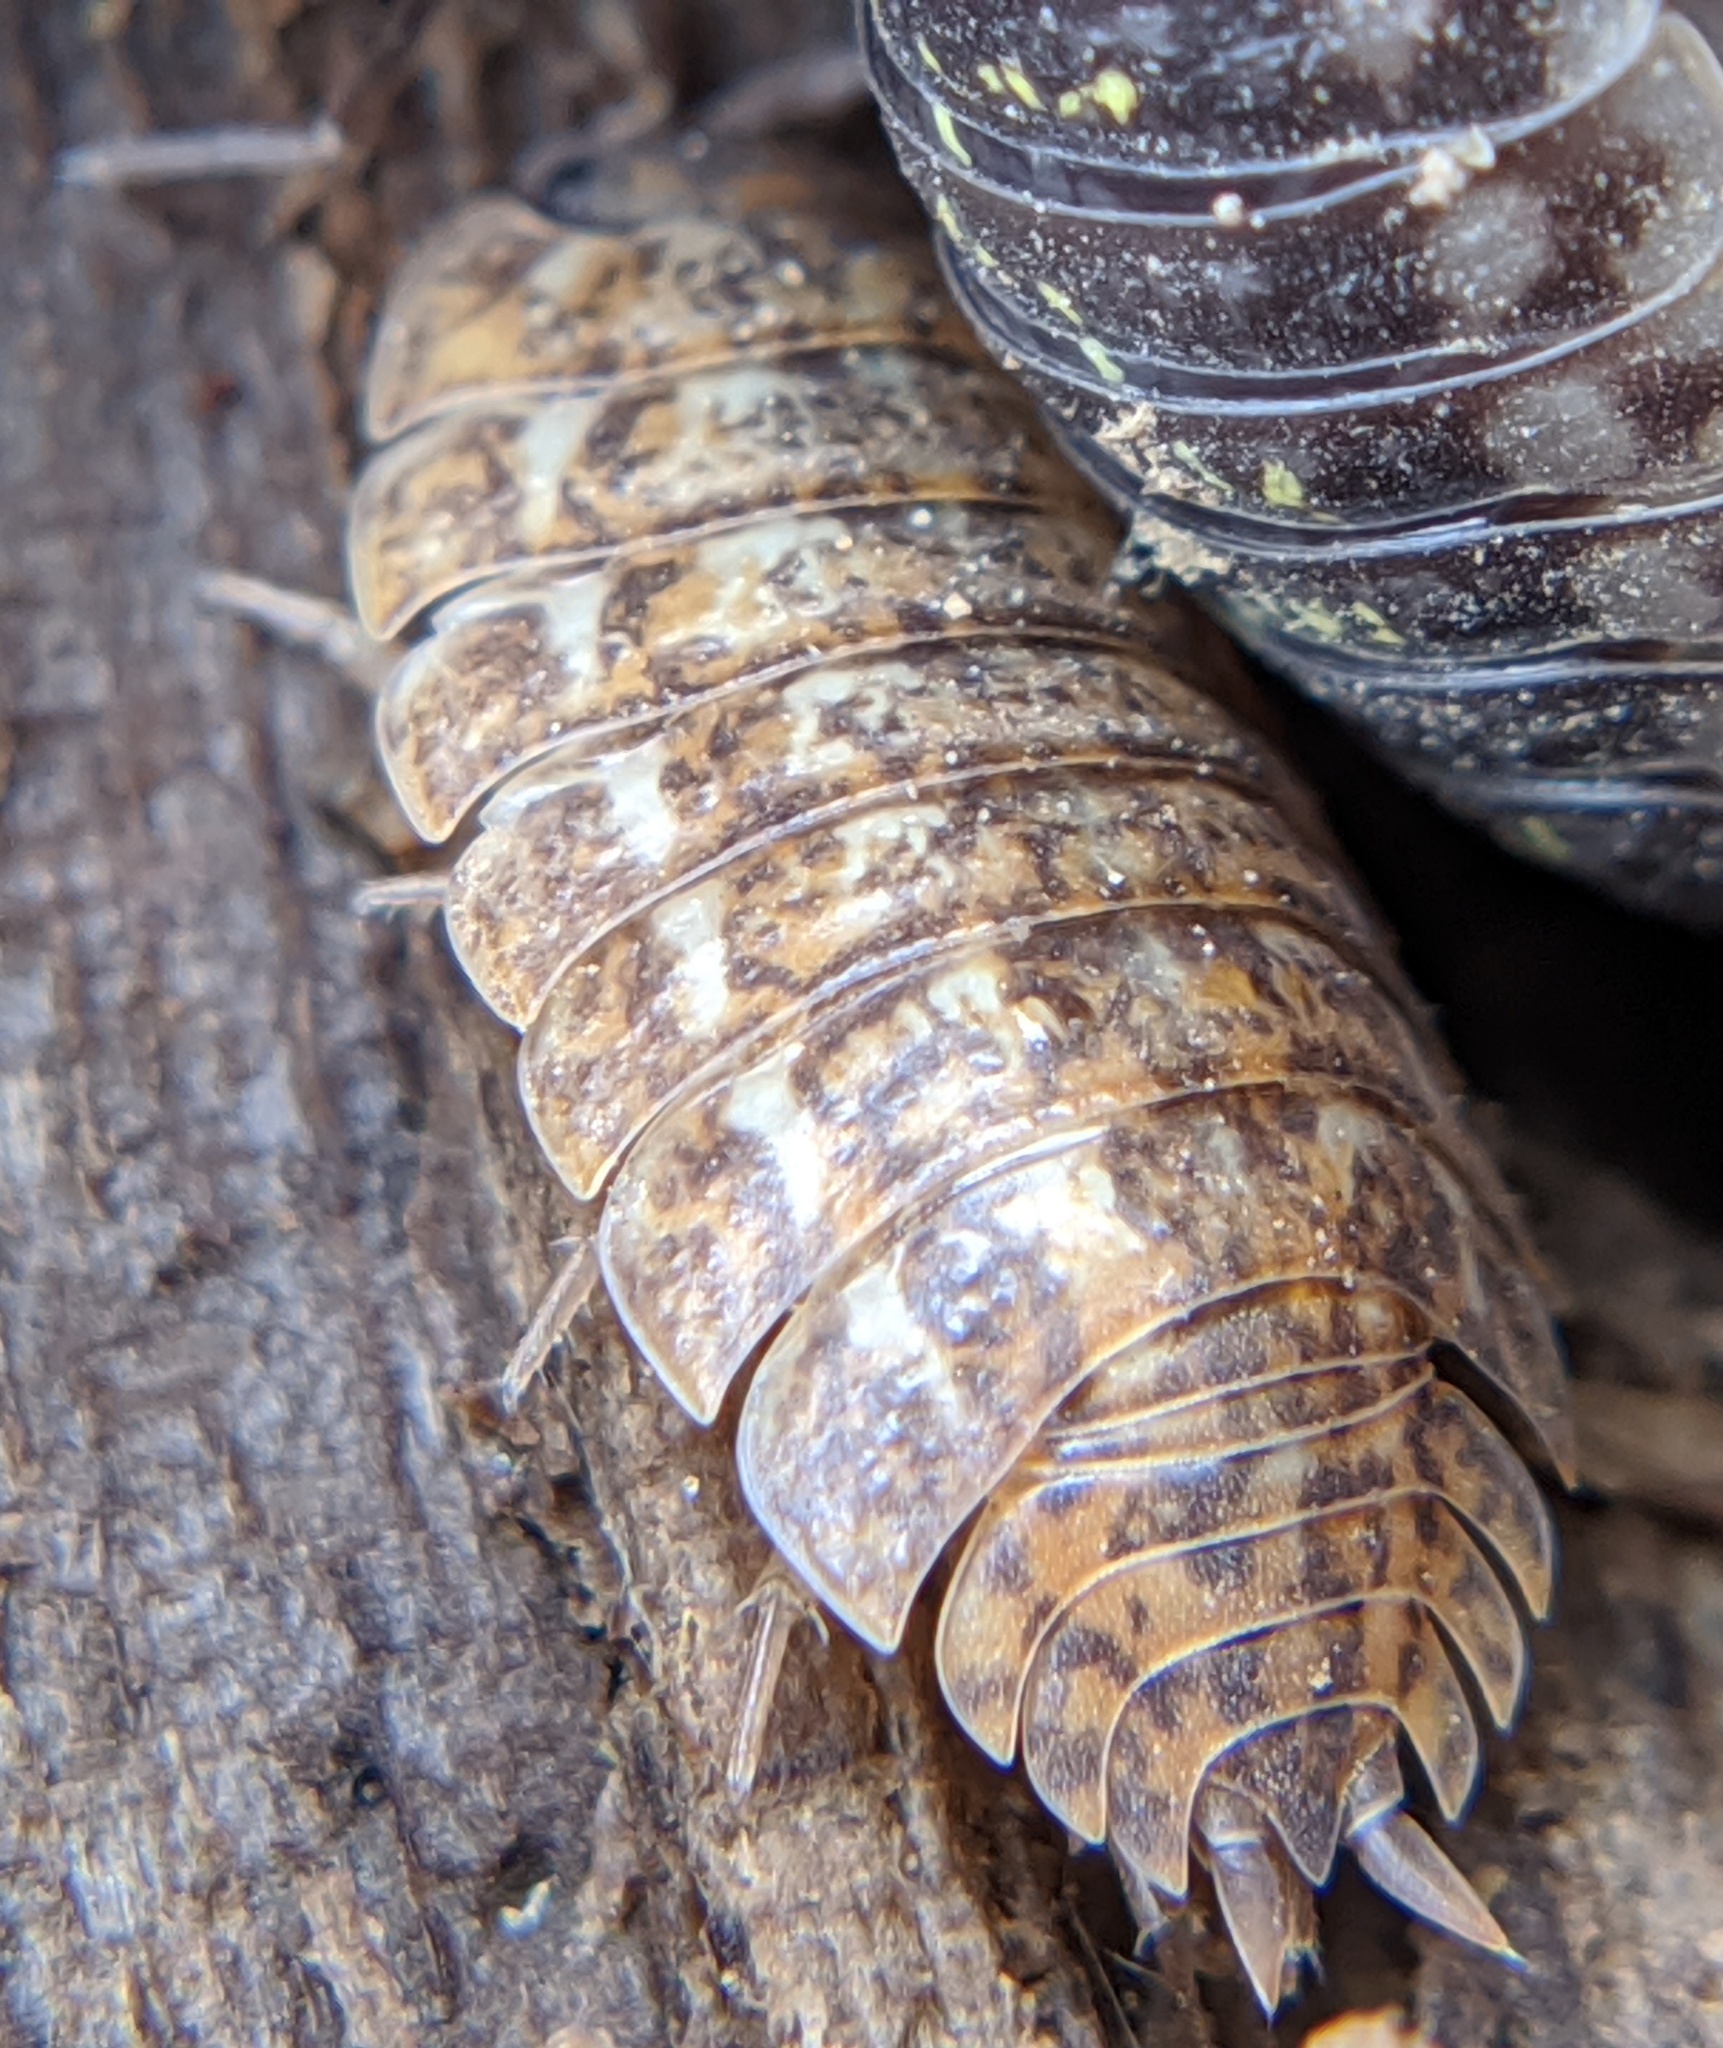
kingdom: Animalia
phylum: Arthropoda
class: Malacostraca
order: Isopoda
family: Trachelipodidae
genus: Trachelipus
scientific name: Trachelipus rathkii
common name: Isopod
